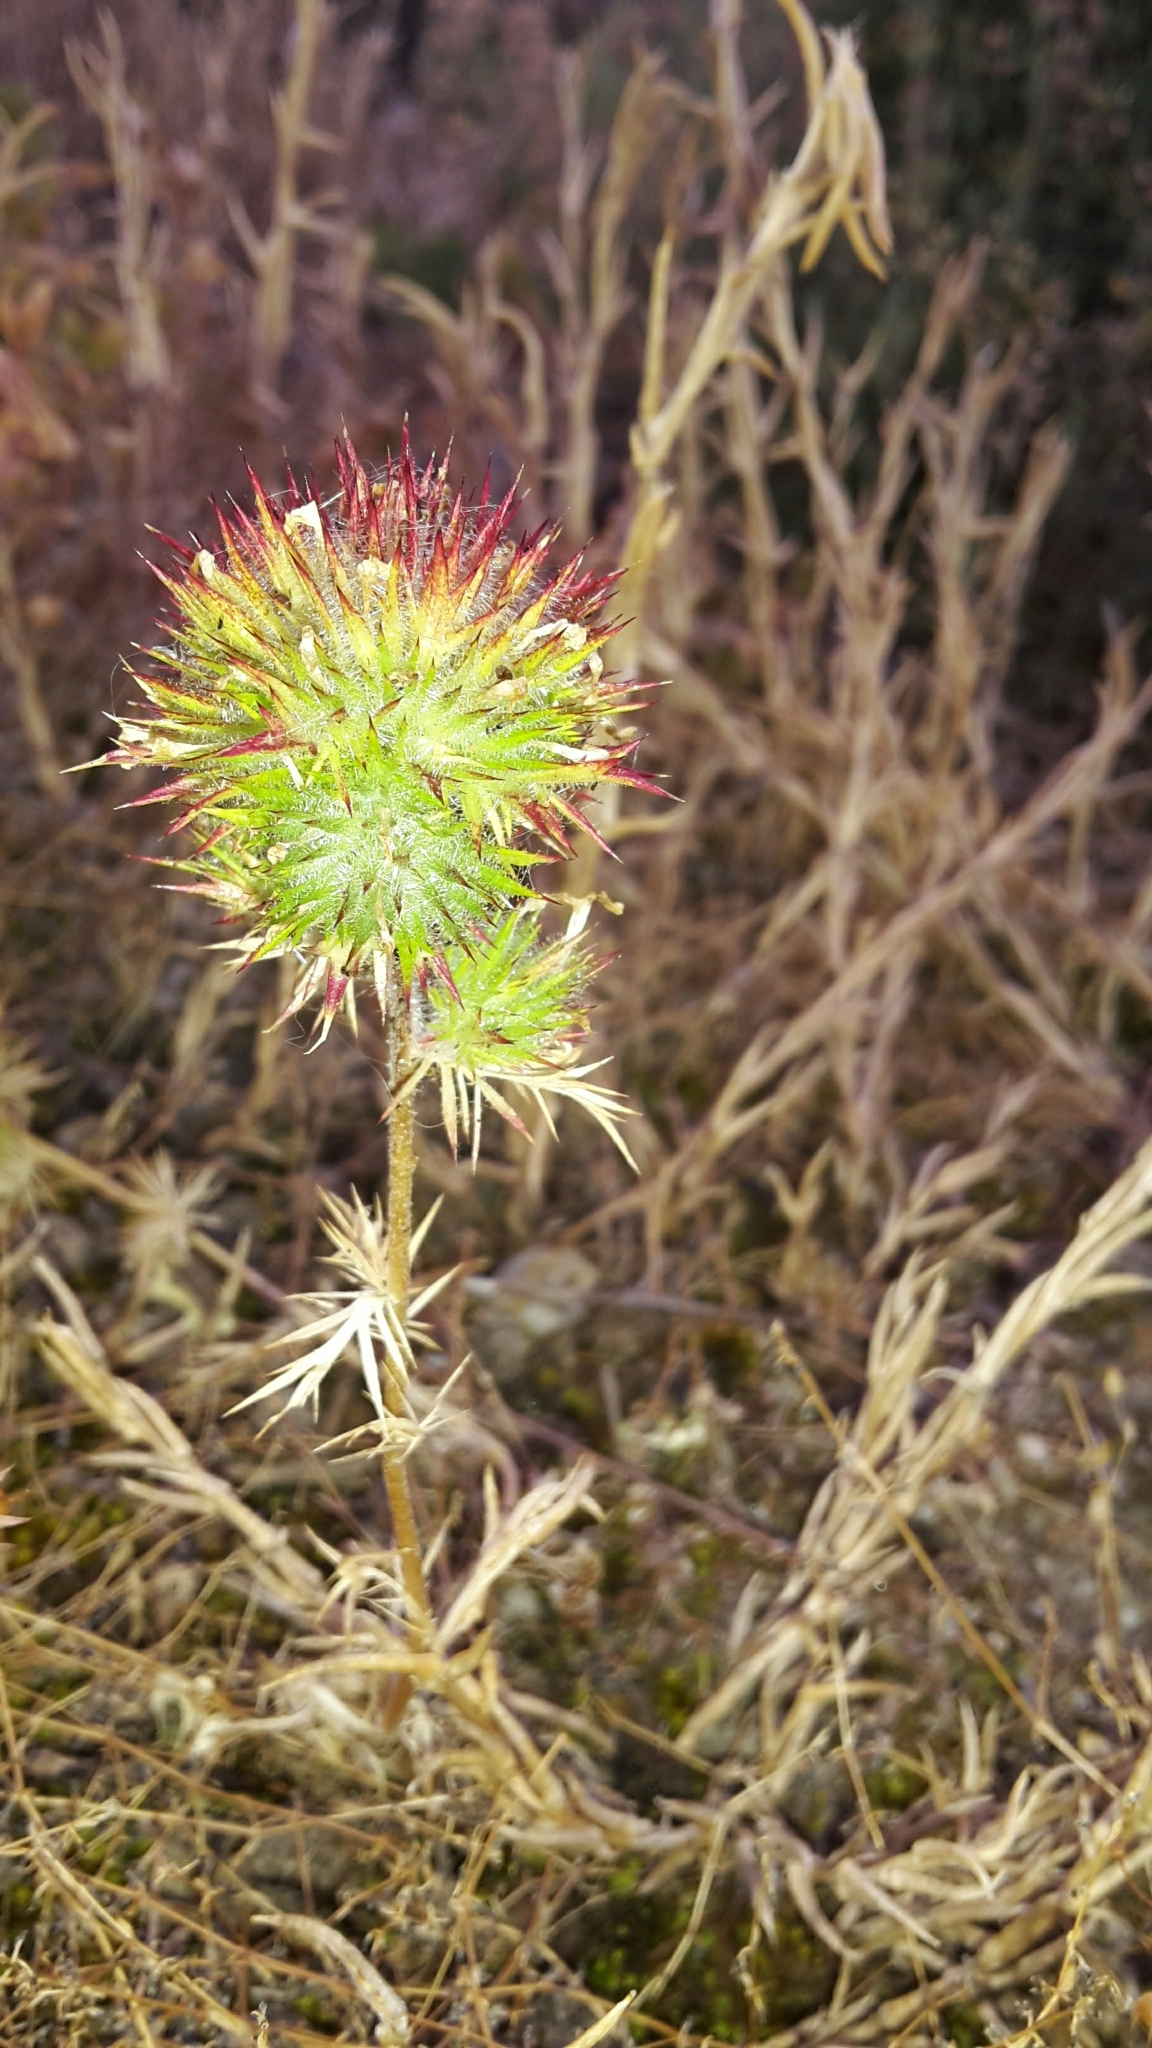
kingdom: Plantae
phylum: Tracheophyta
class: Magnoliopsida
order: Ericales
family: Polemoniaceae
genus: Navarretia
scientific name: Navarretia squarrosa
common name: Skunkweed
